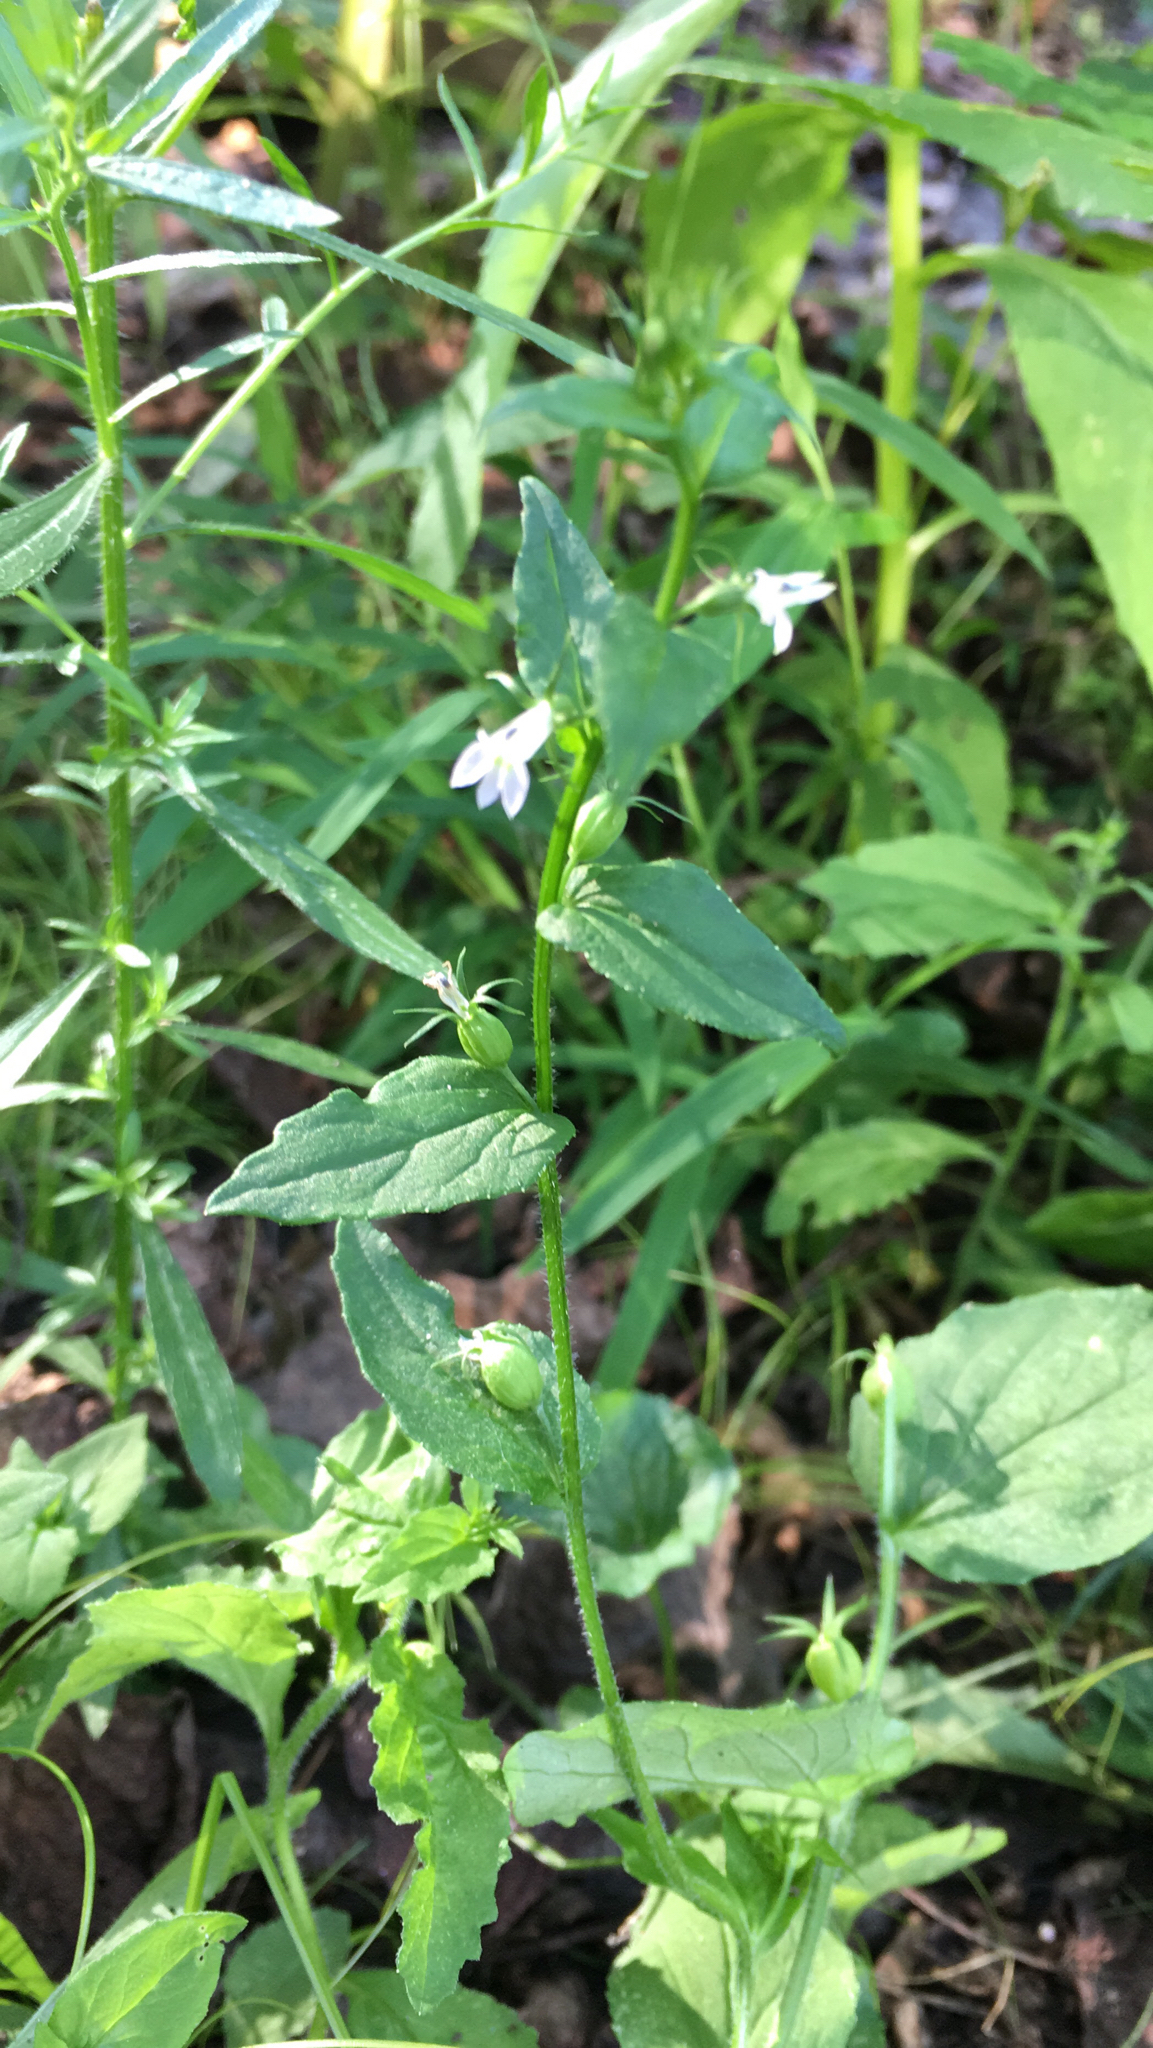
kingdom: Plantae
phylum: Tracheophyta
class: Magnoliopsida
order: Asterales
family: Campanulaceae
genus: Lobelia
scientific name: Lobelia inflata
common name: Indian tobacco
